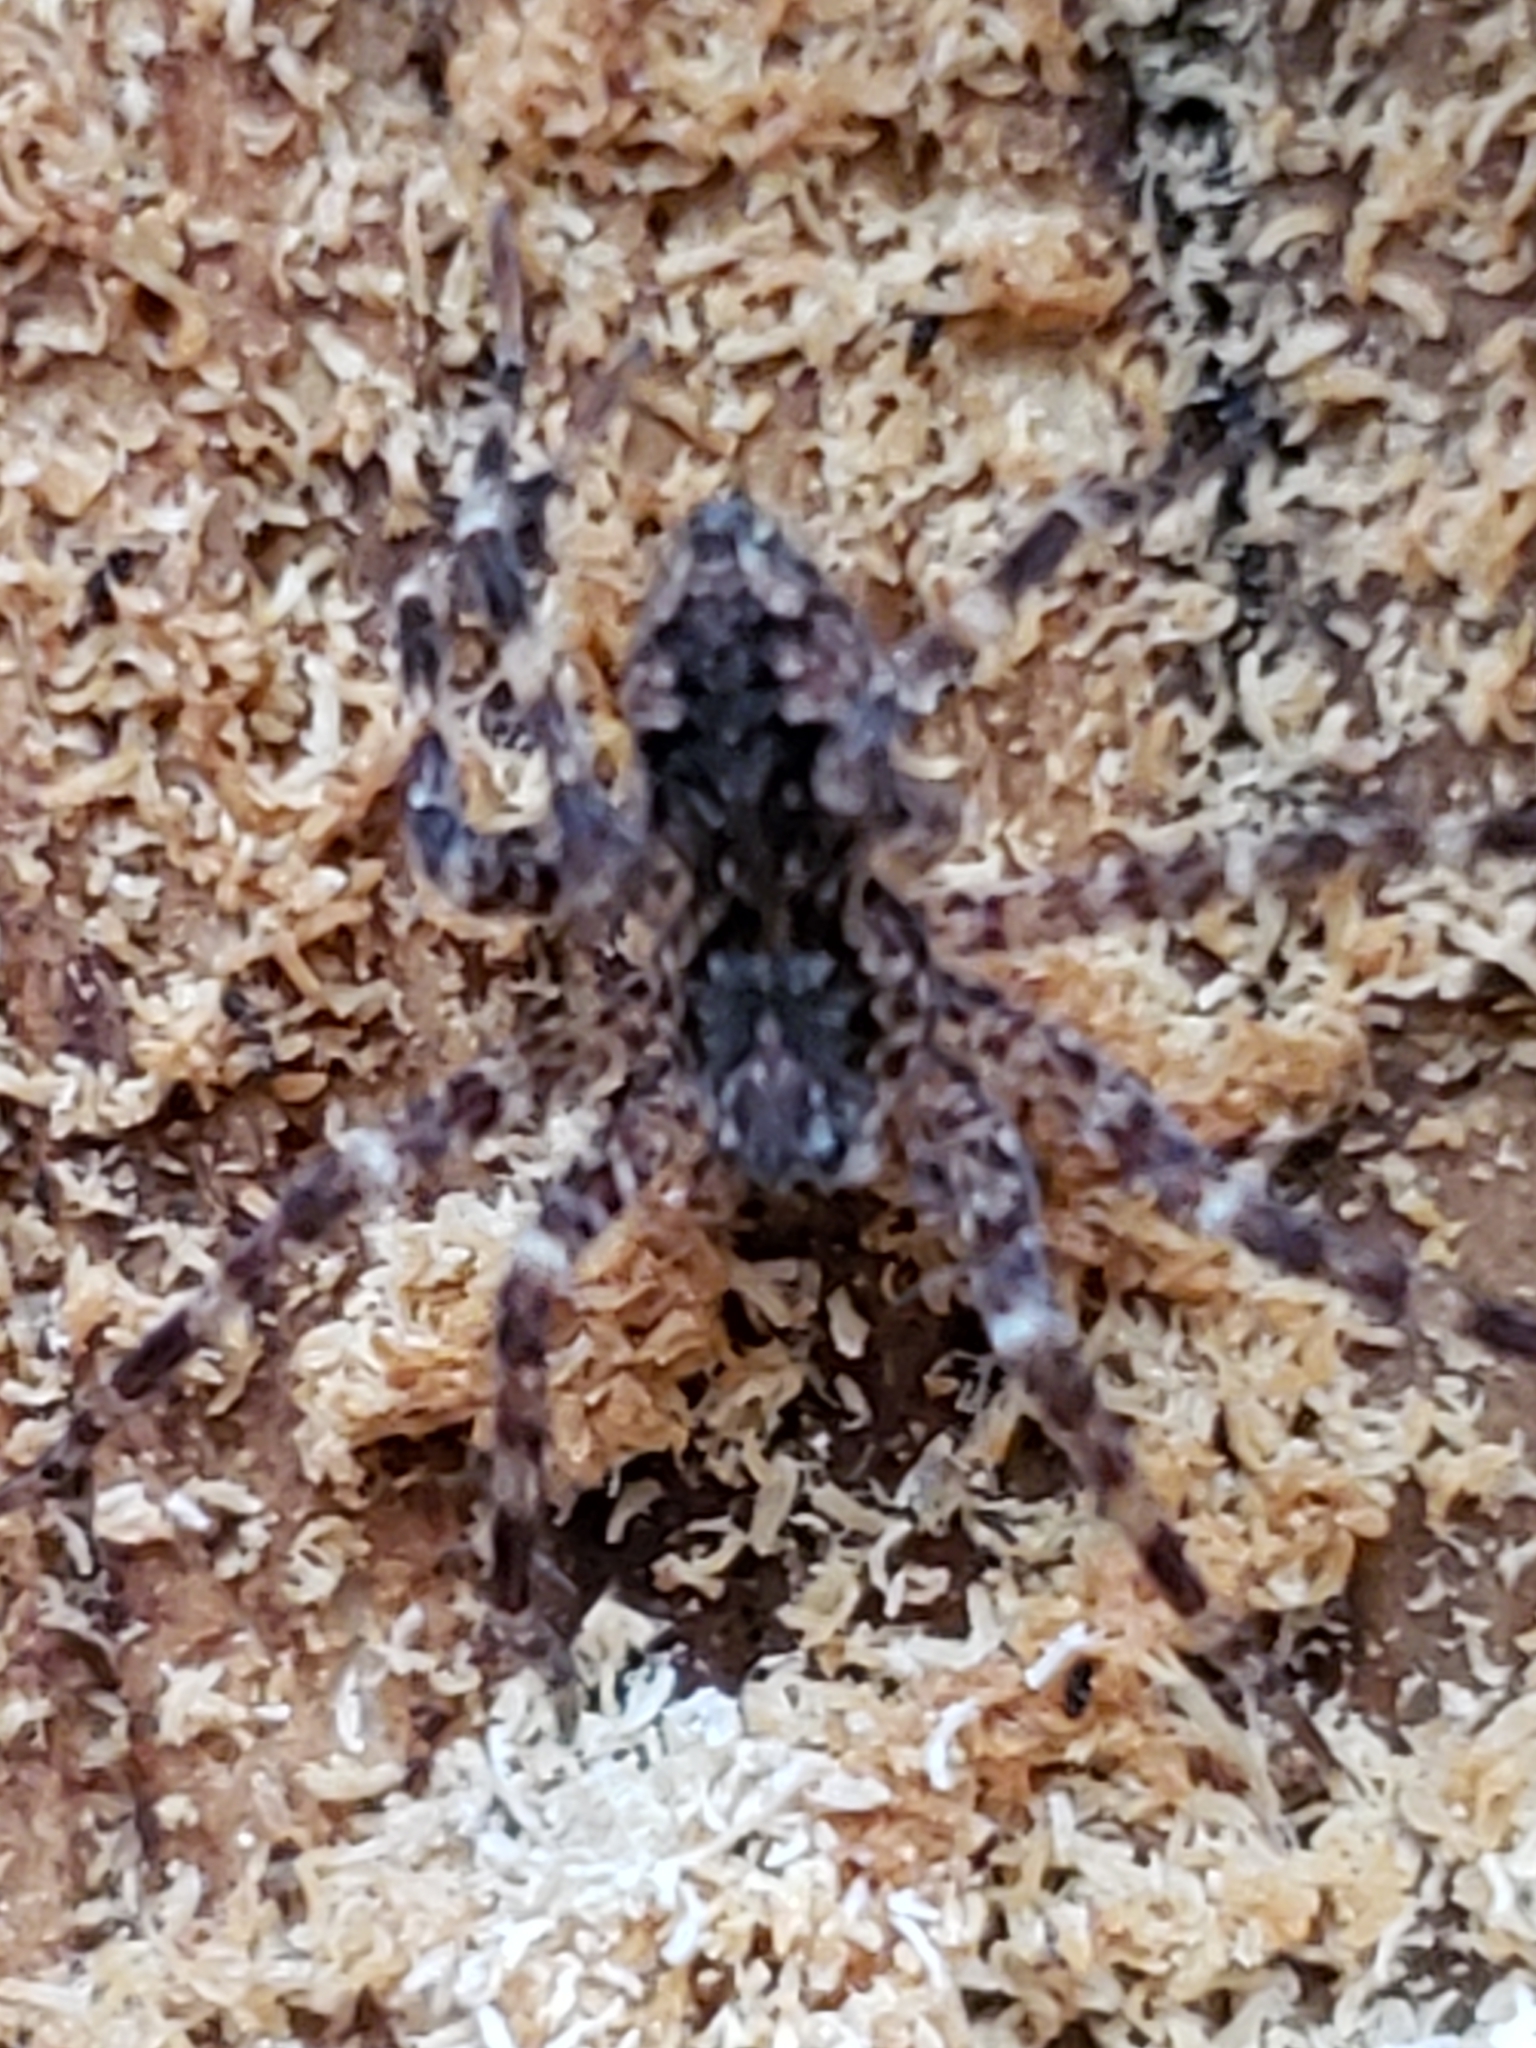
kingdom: Animalia
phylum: Arthropoda
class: Arachnida
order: Araneae
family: Pisauridae
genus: Dolomedes
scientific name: Dolomedes tenebrosus
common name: Dark fishing spider
